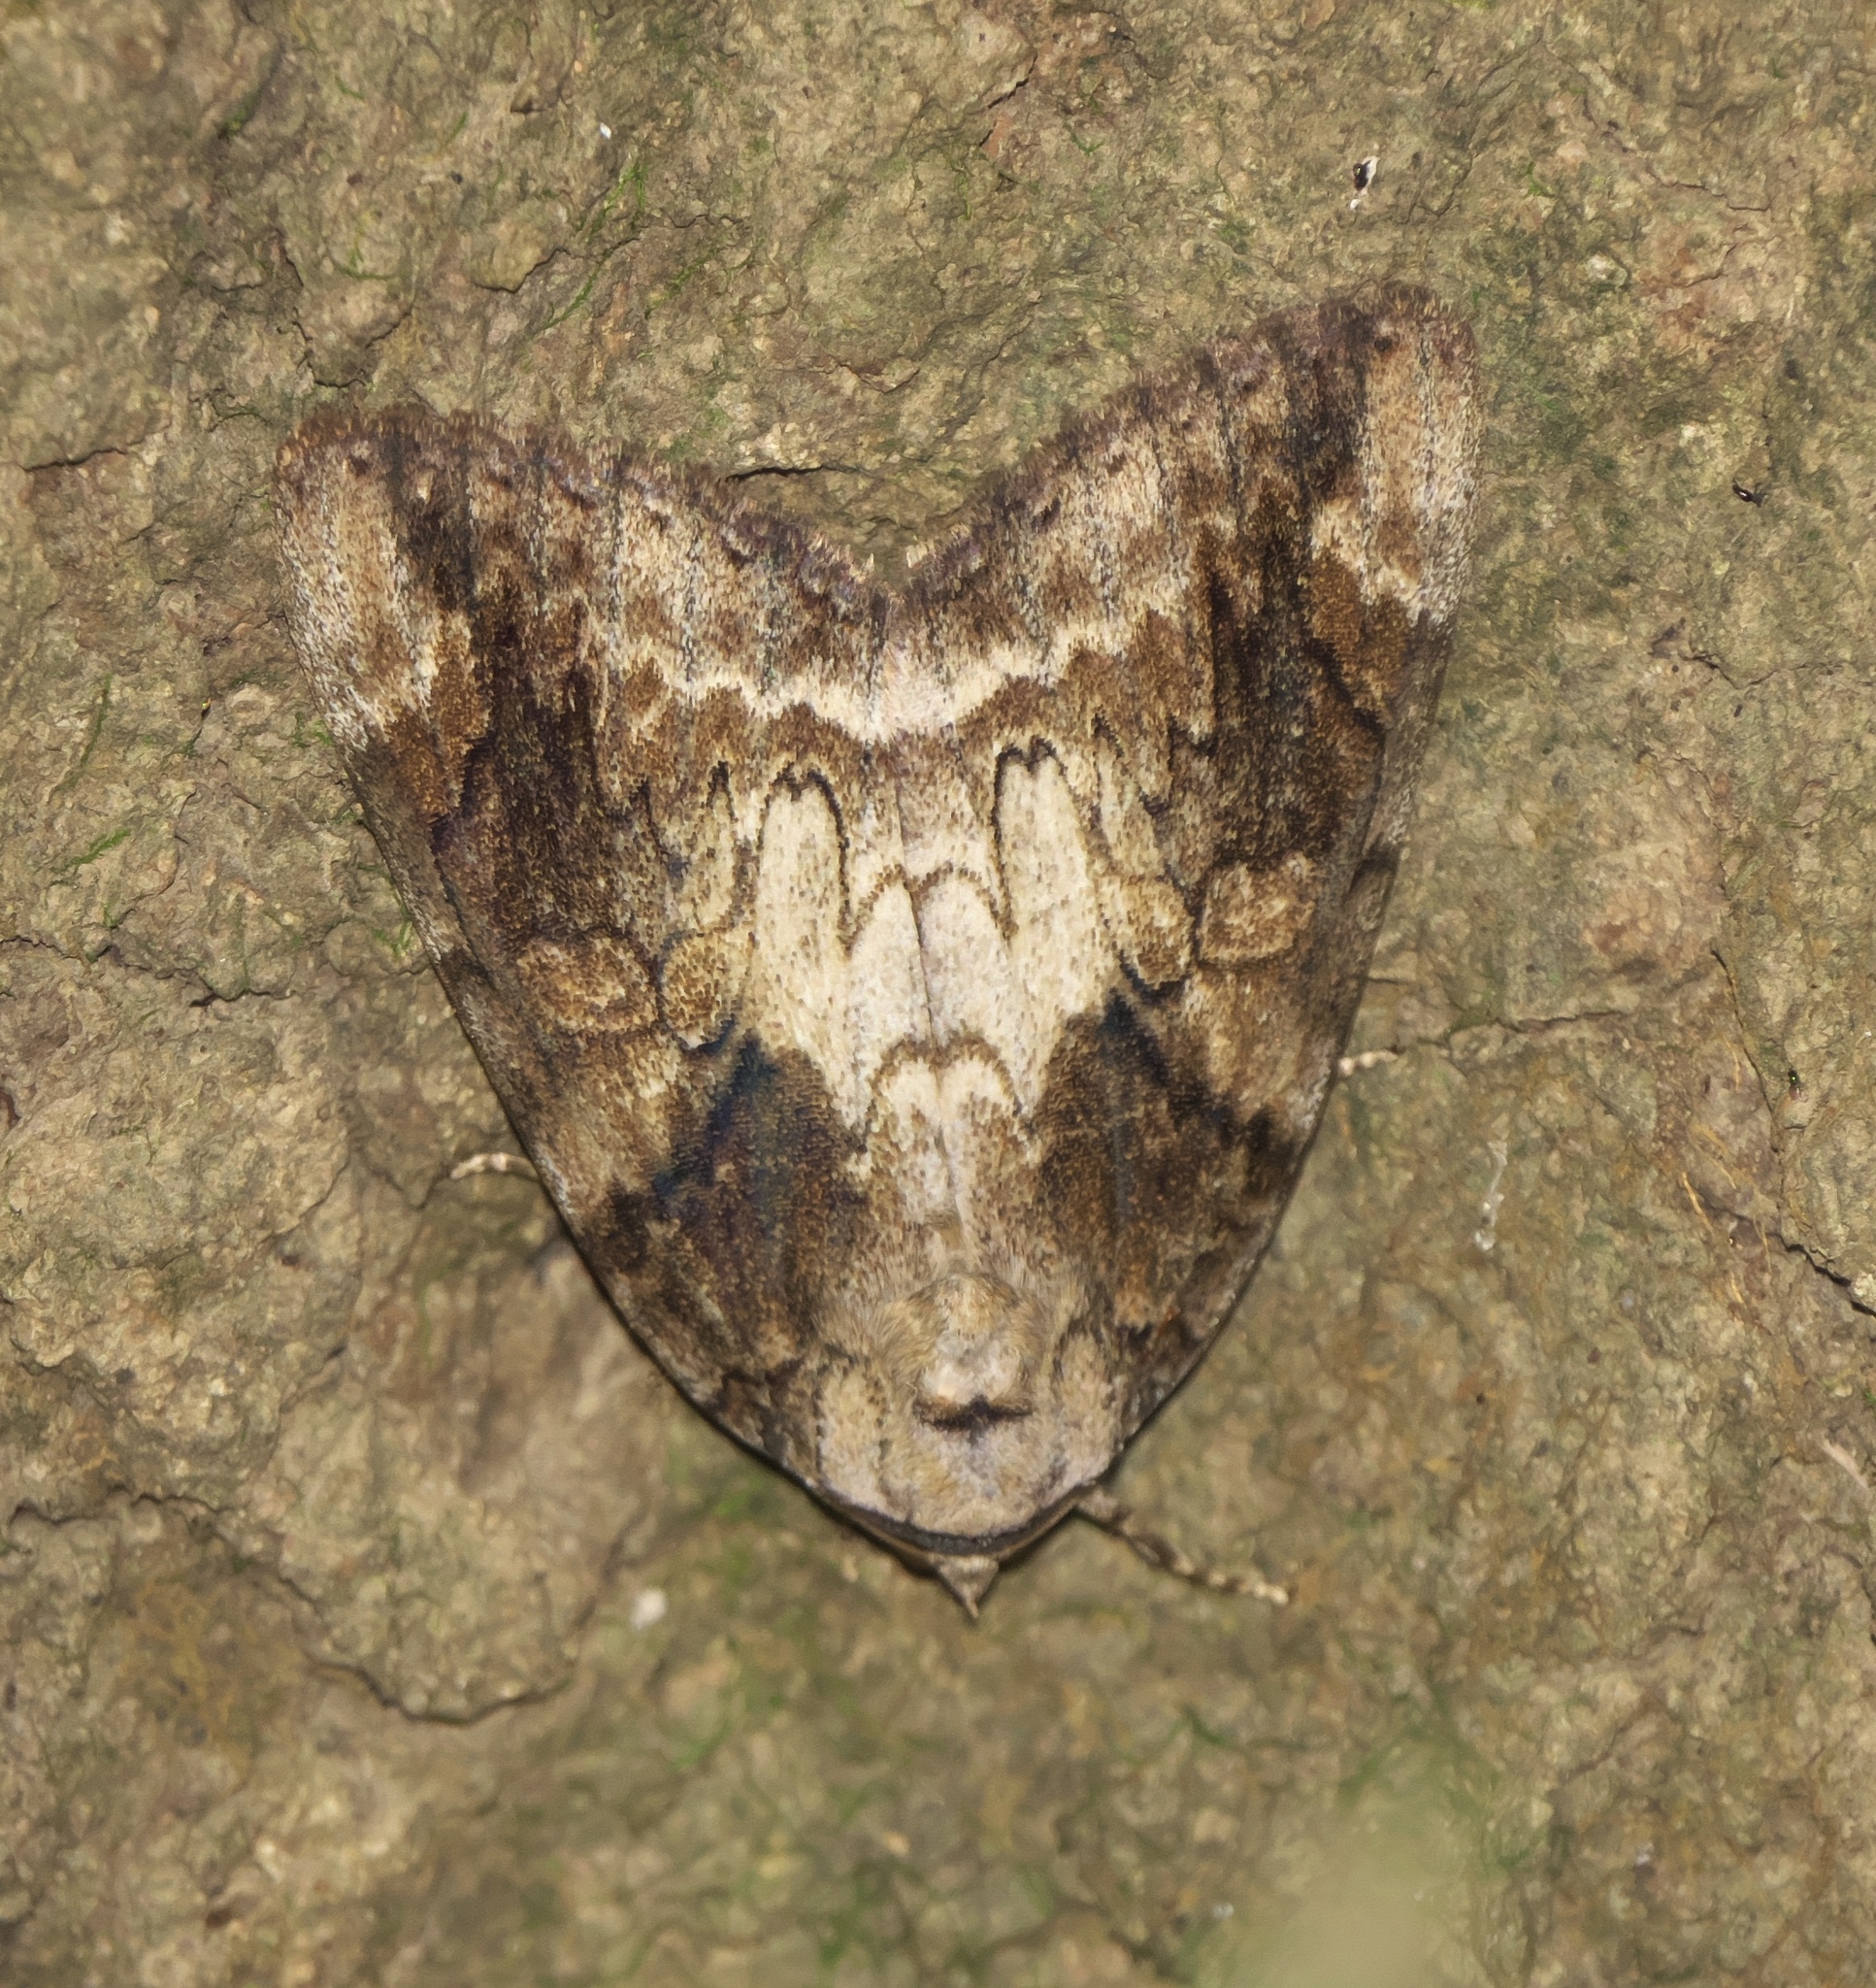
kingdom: Animalia
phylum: Arthropoda
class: Insecta
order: Lepidoptera
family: Erebidae
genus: Catocala
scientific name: Catocala atocala
